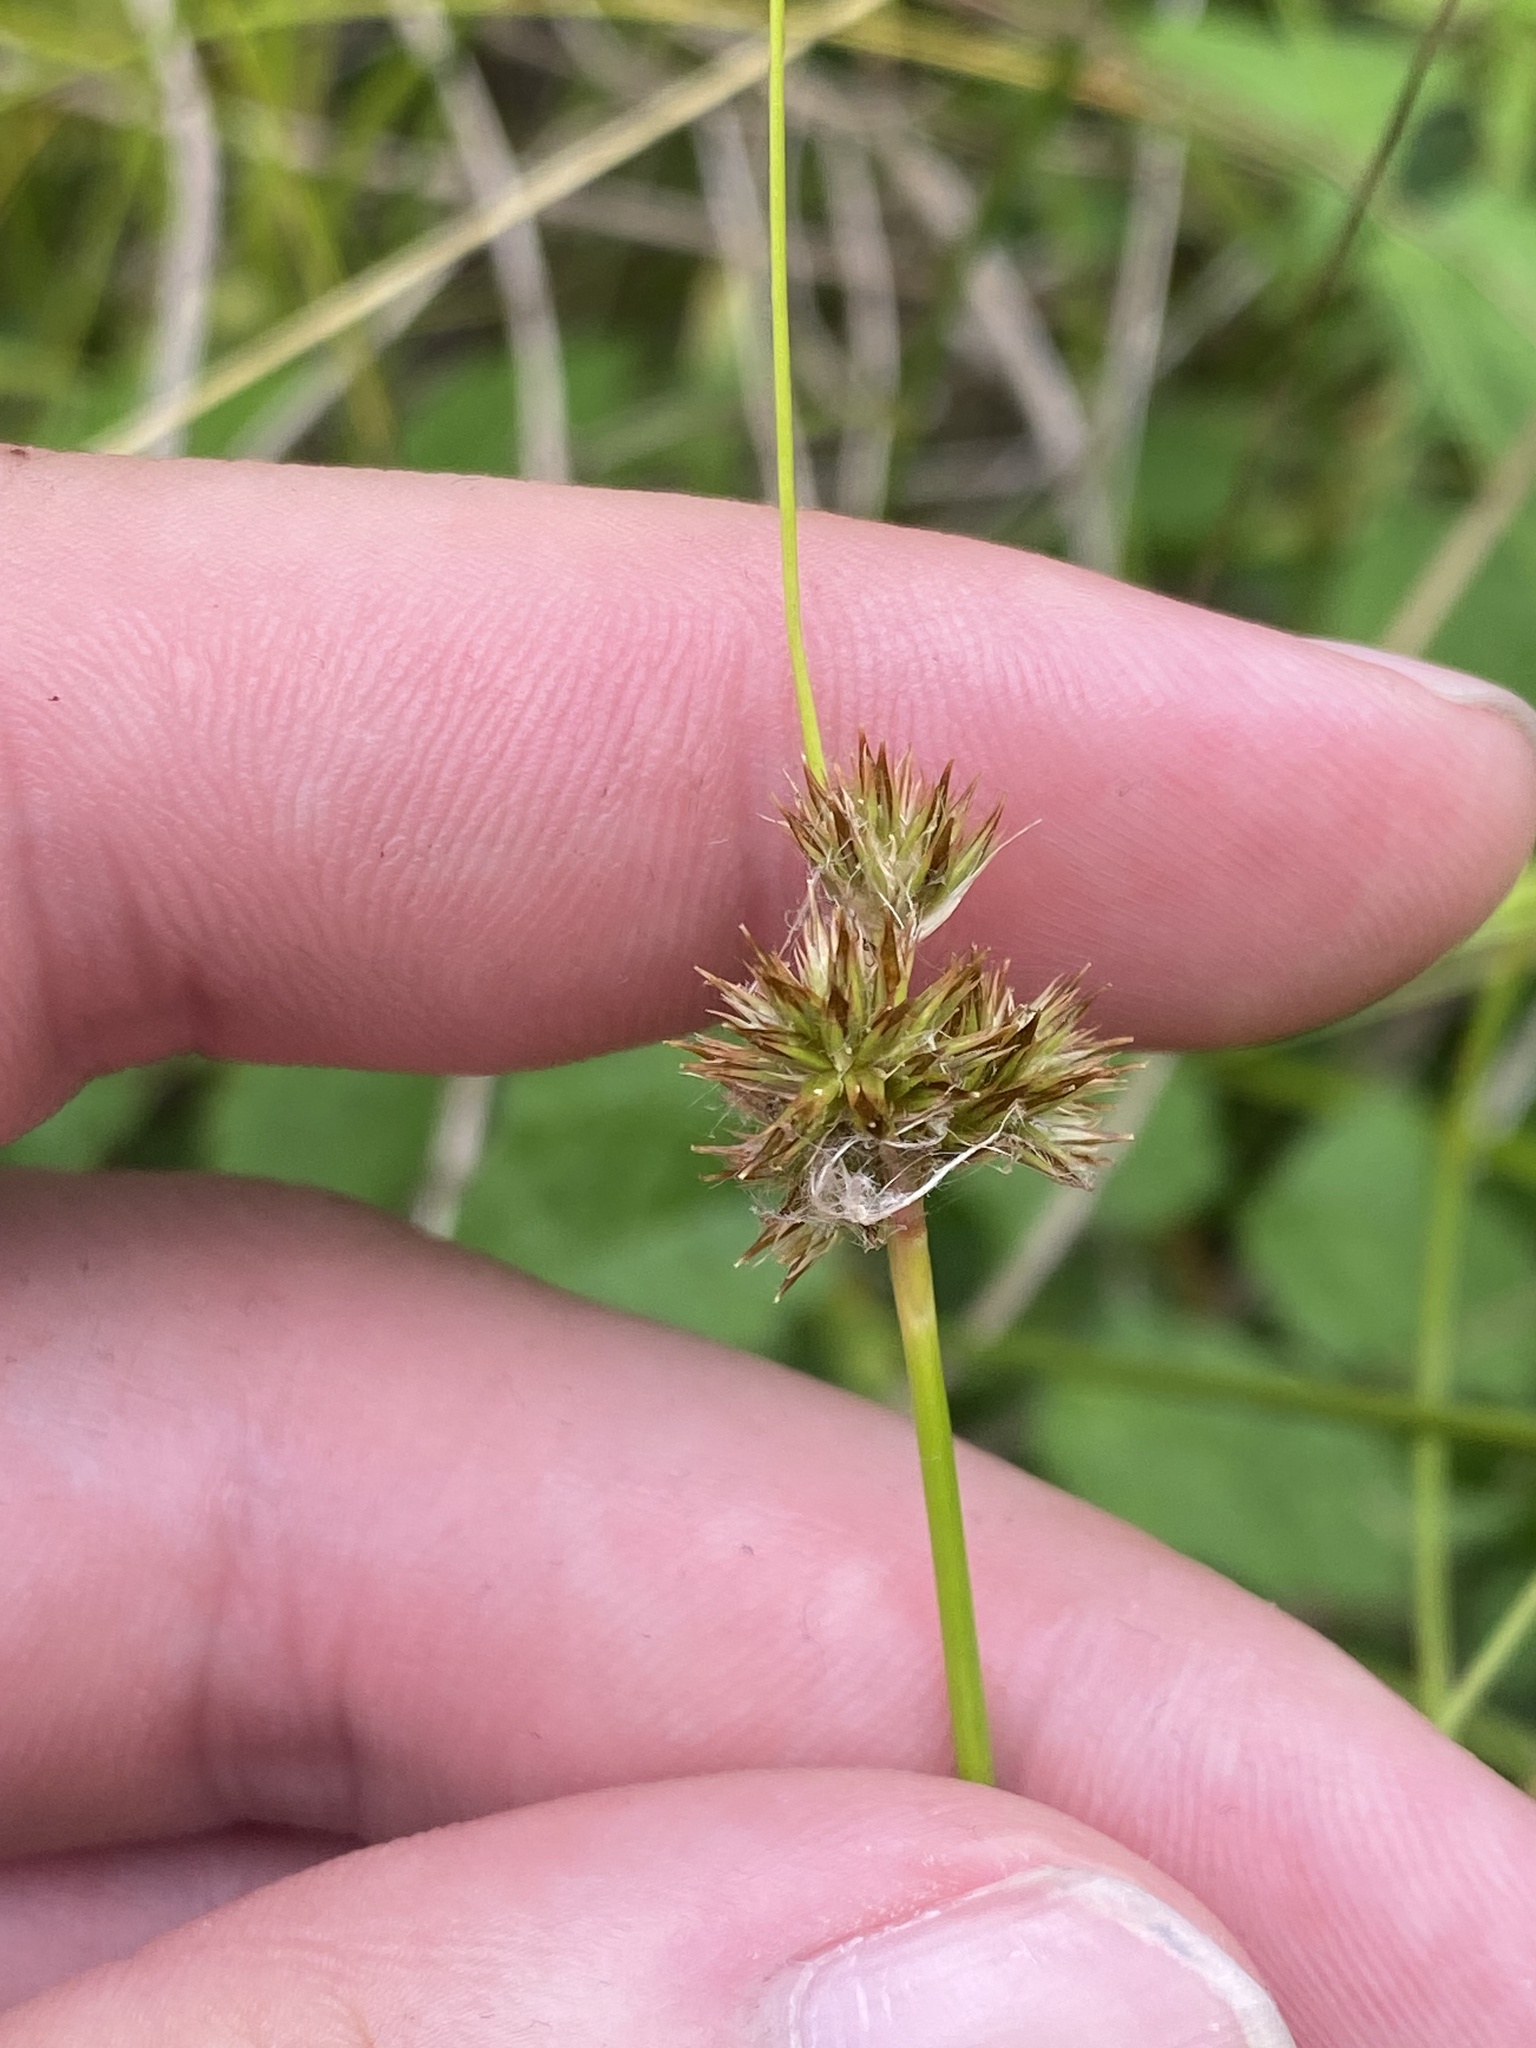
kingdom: Plantae
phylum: Tracheophyta
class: Liliopsida
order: Poales
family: Juncaceae
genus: Juncus
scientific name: Juncus torreyi
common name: Torrey's rush
